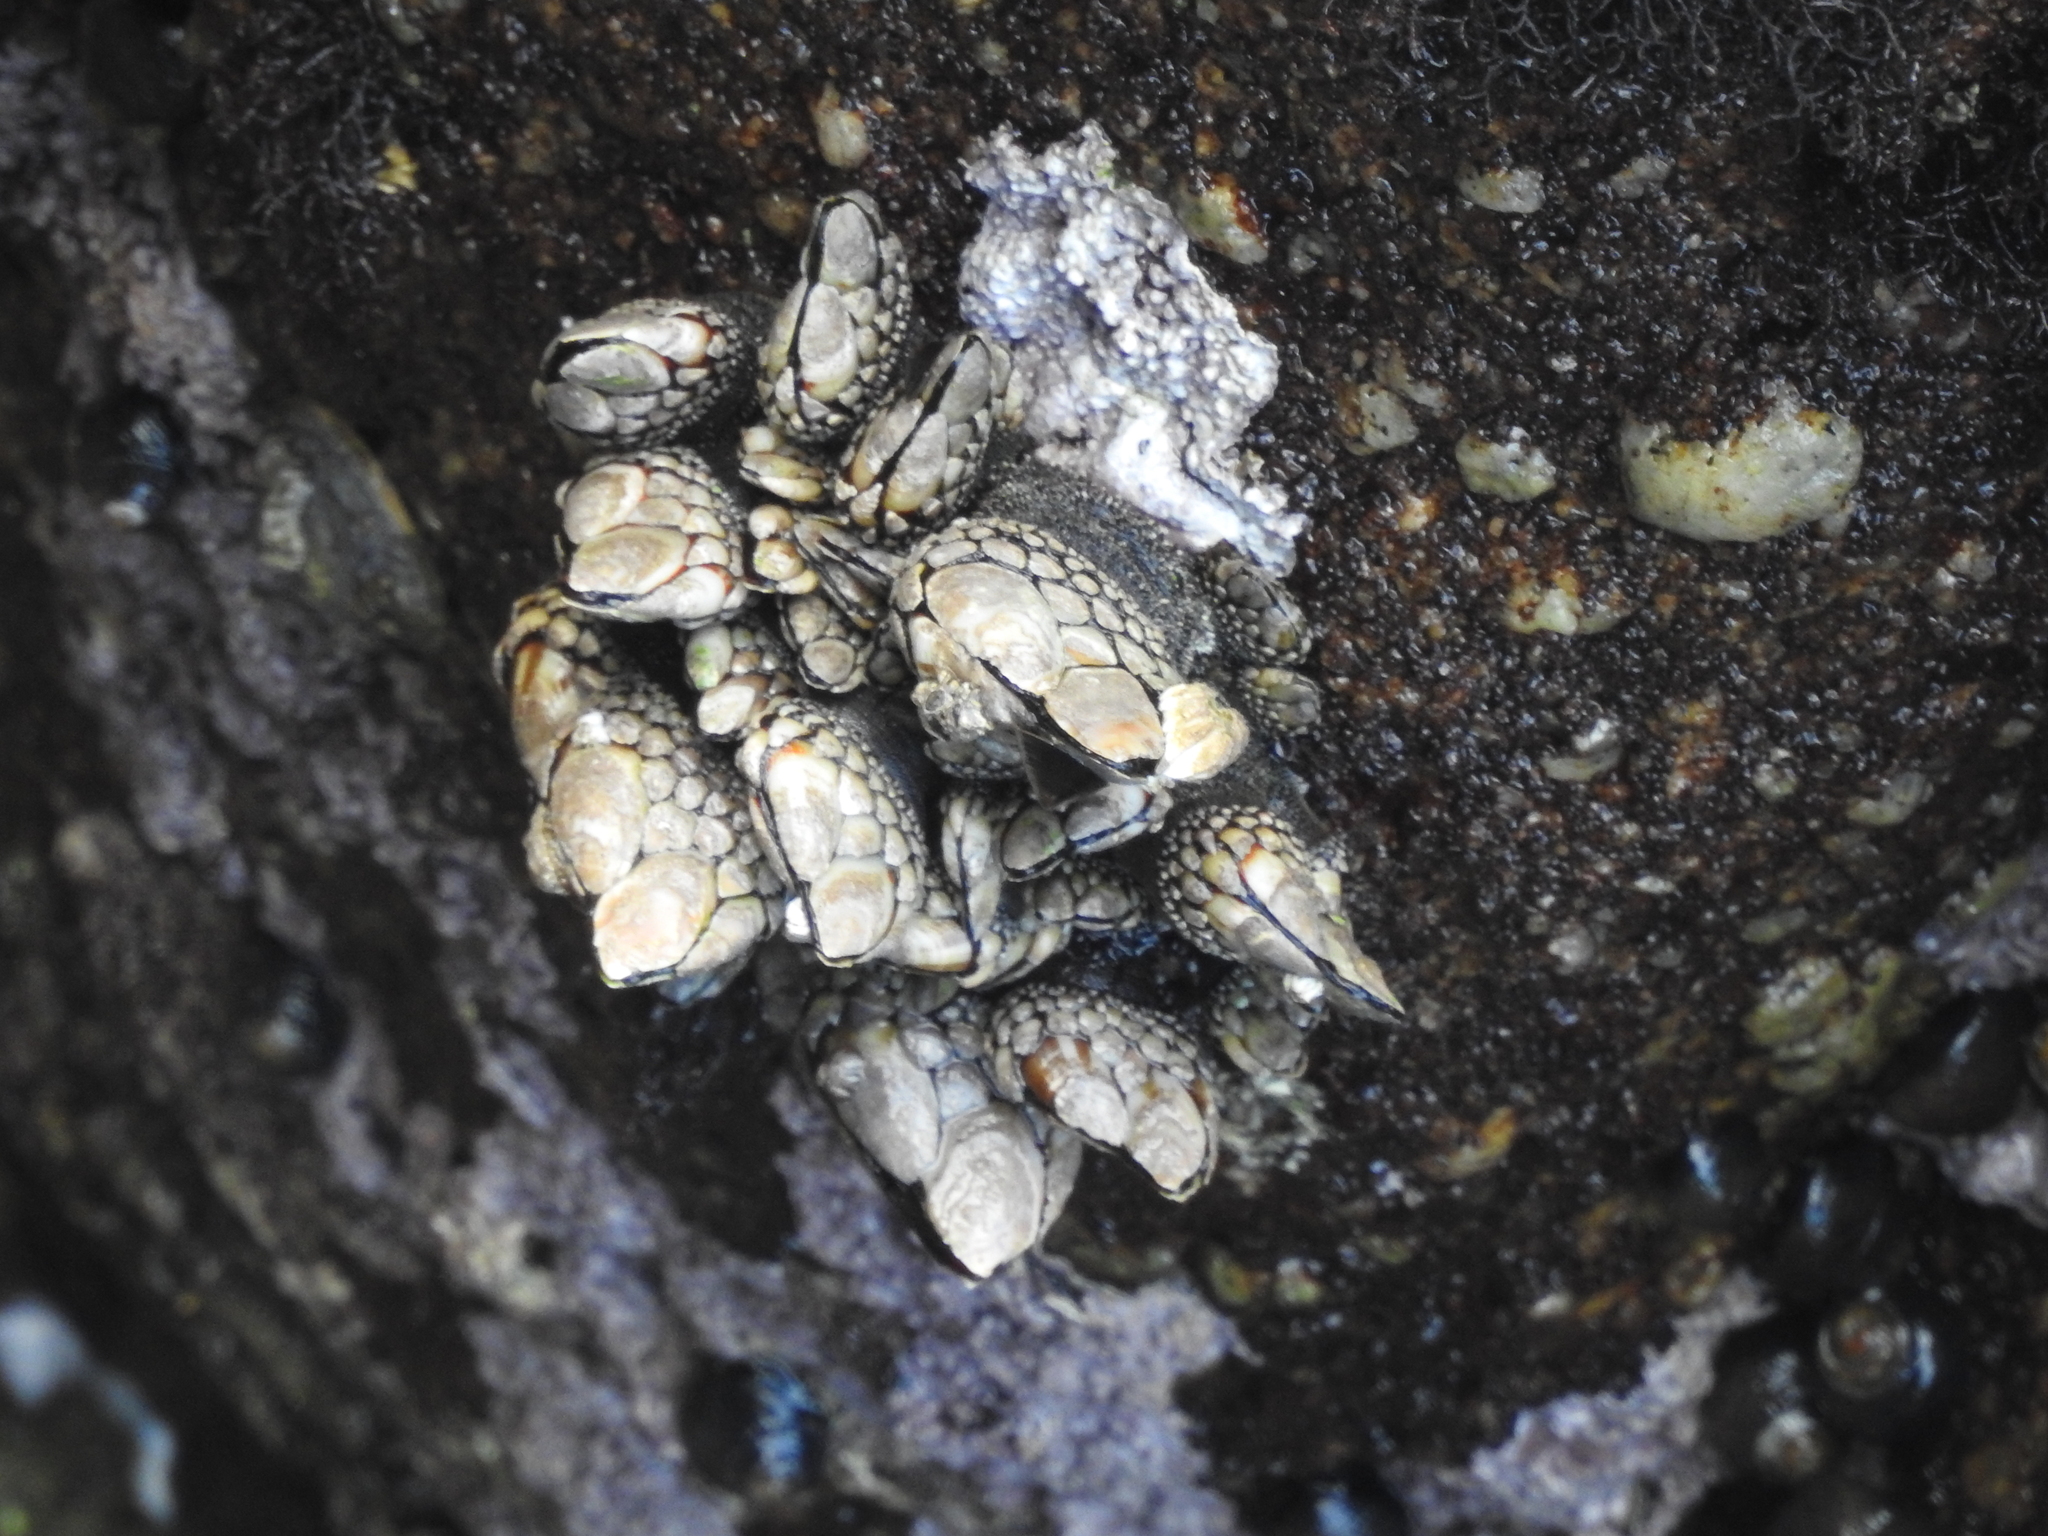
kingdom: Animalia
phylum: Arthropoda
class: Maxillopoda
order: Pedunculata
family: Pollicipedidae
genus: Pollicipes
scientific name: Pollicipes polymerus
